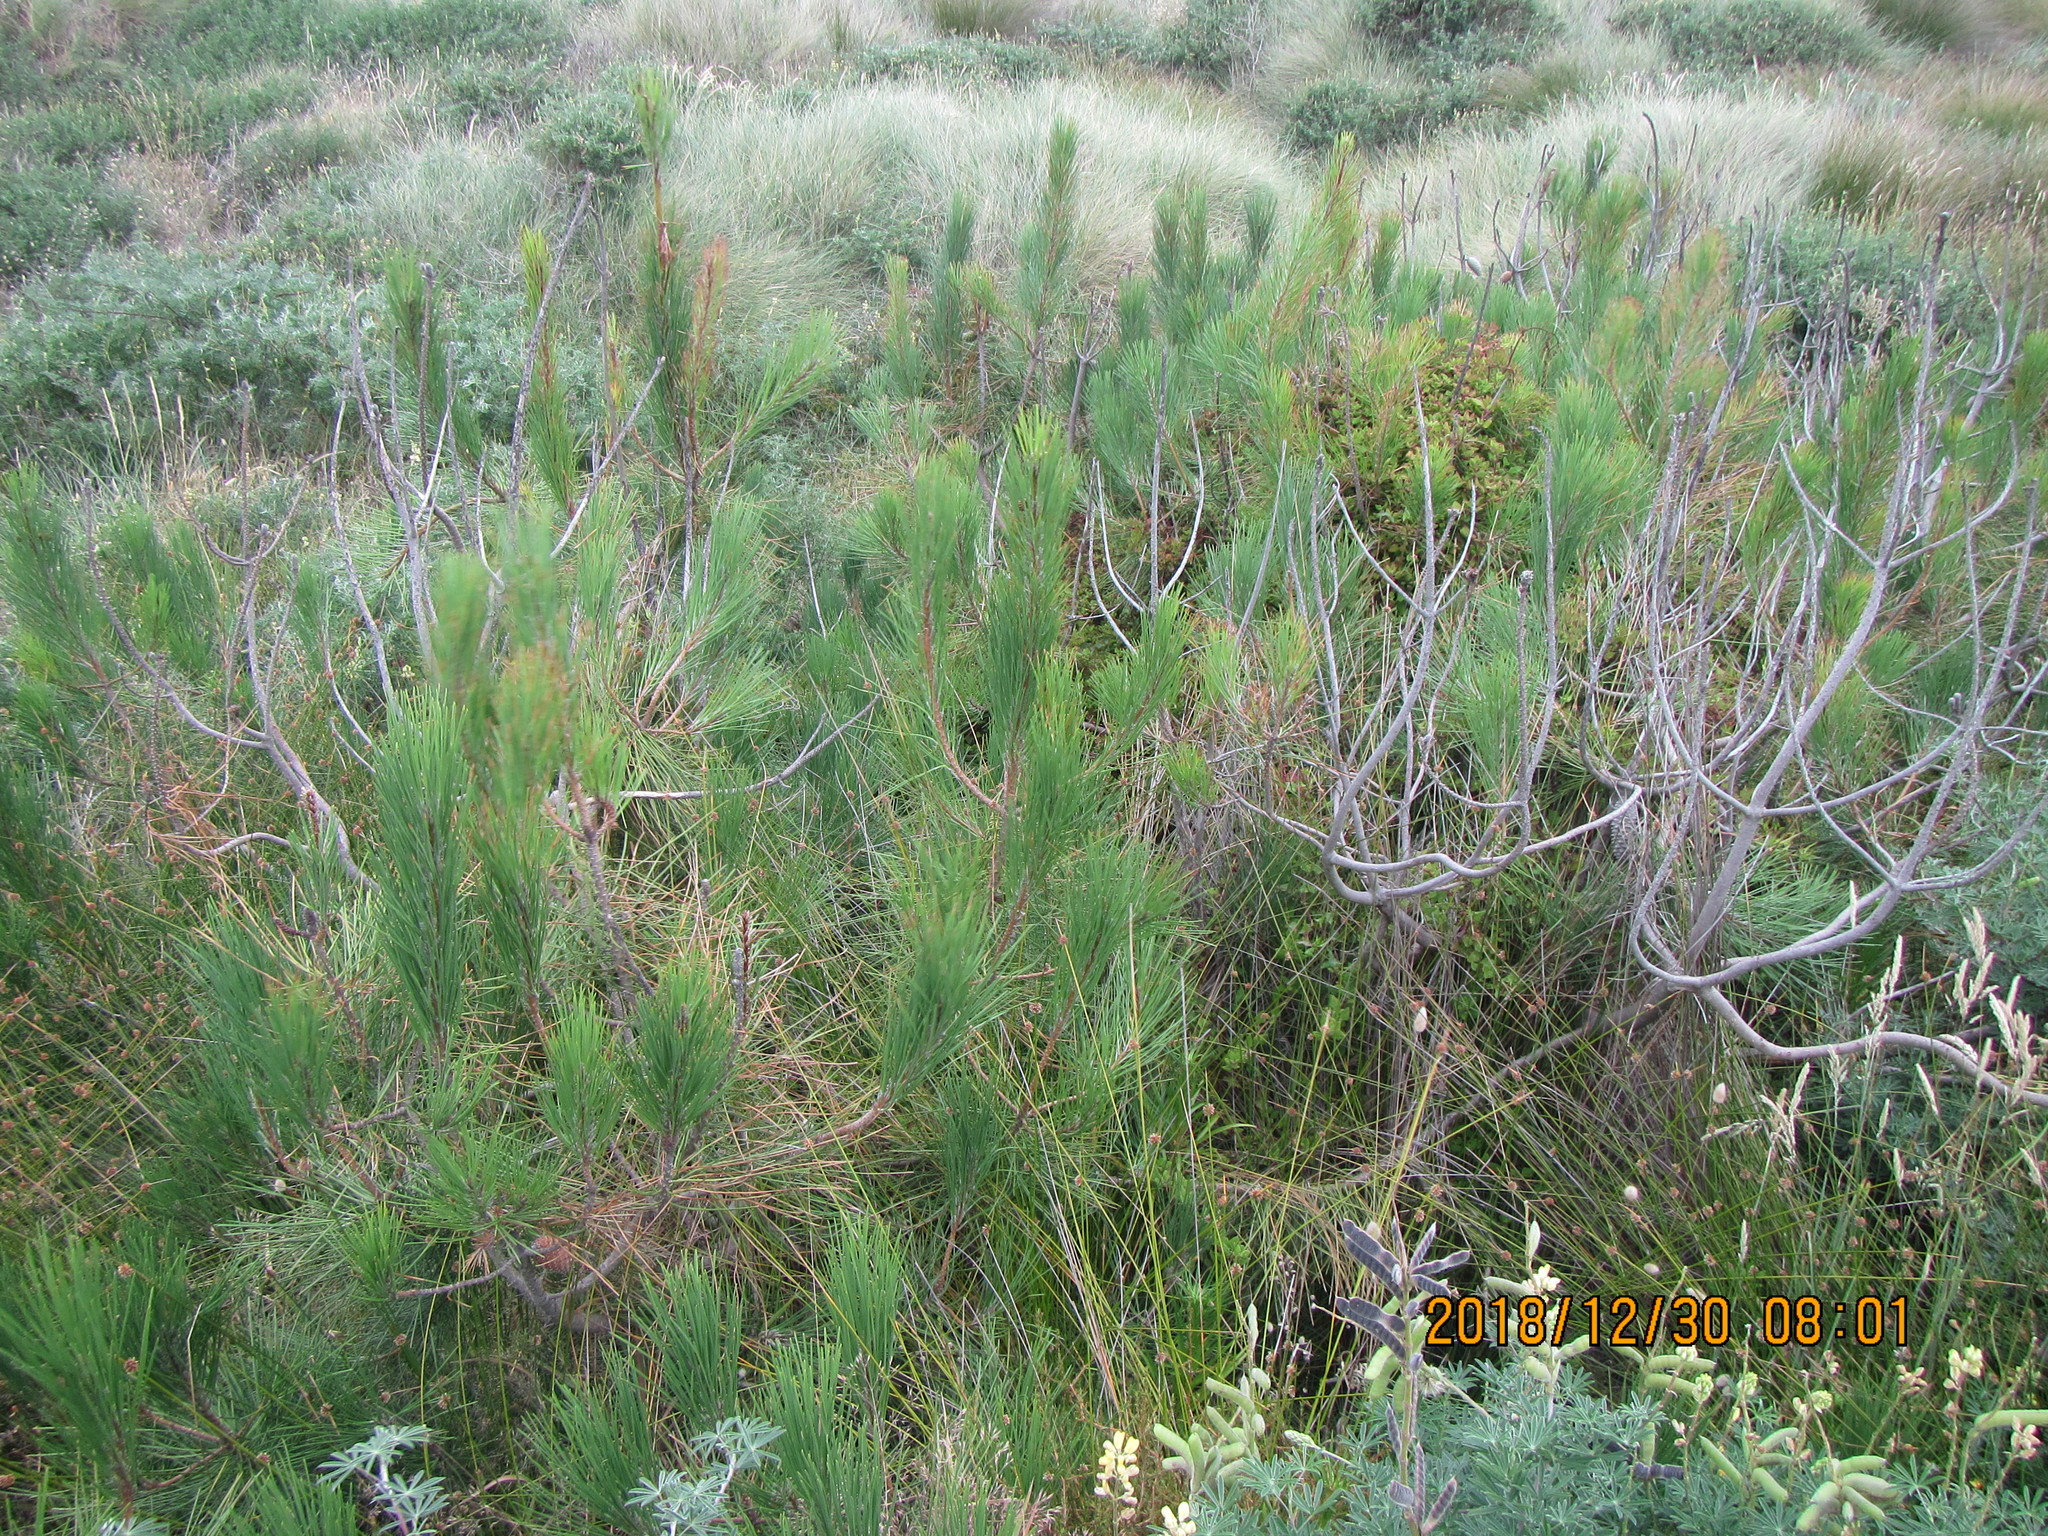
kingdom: Plantae
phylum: Tracheophyta
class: Pinopsida
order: Pinales
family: Pinaceae
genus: Pinus
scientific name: Pinus pinaster
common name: Maritime pine
